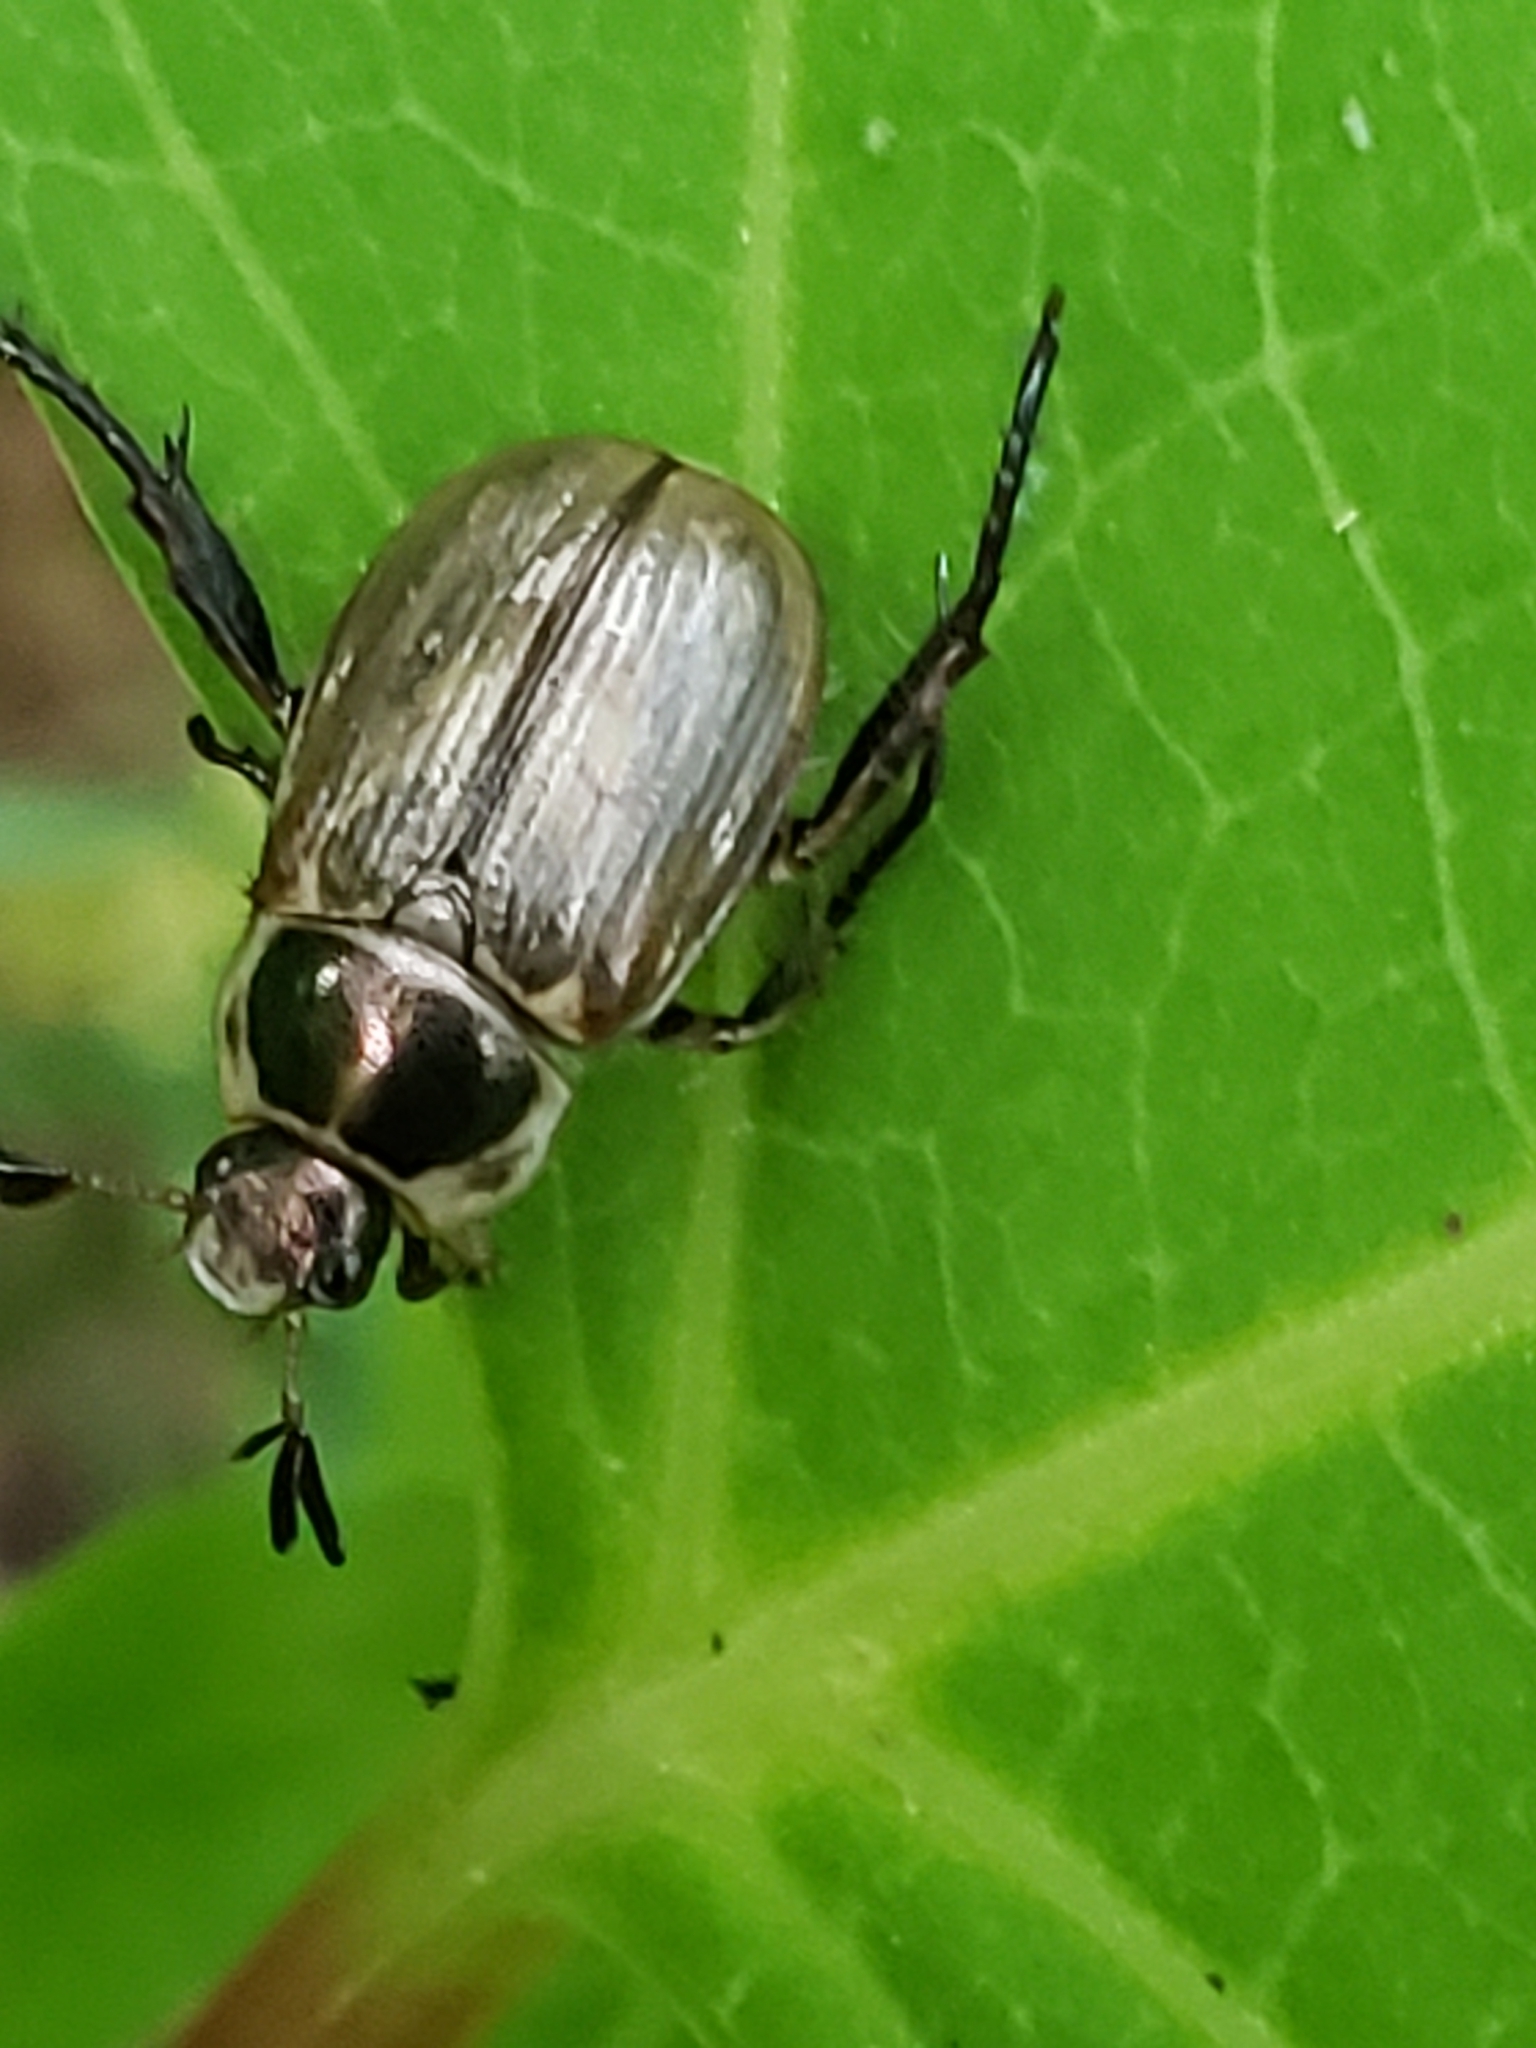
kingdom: Animalia
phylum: Arthropoda
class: Insecta
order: Coleoptera
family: Scarabaeidae
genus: Exomala
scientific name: Exomala orientalis
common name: Oriental beetle
